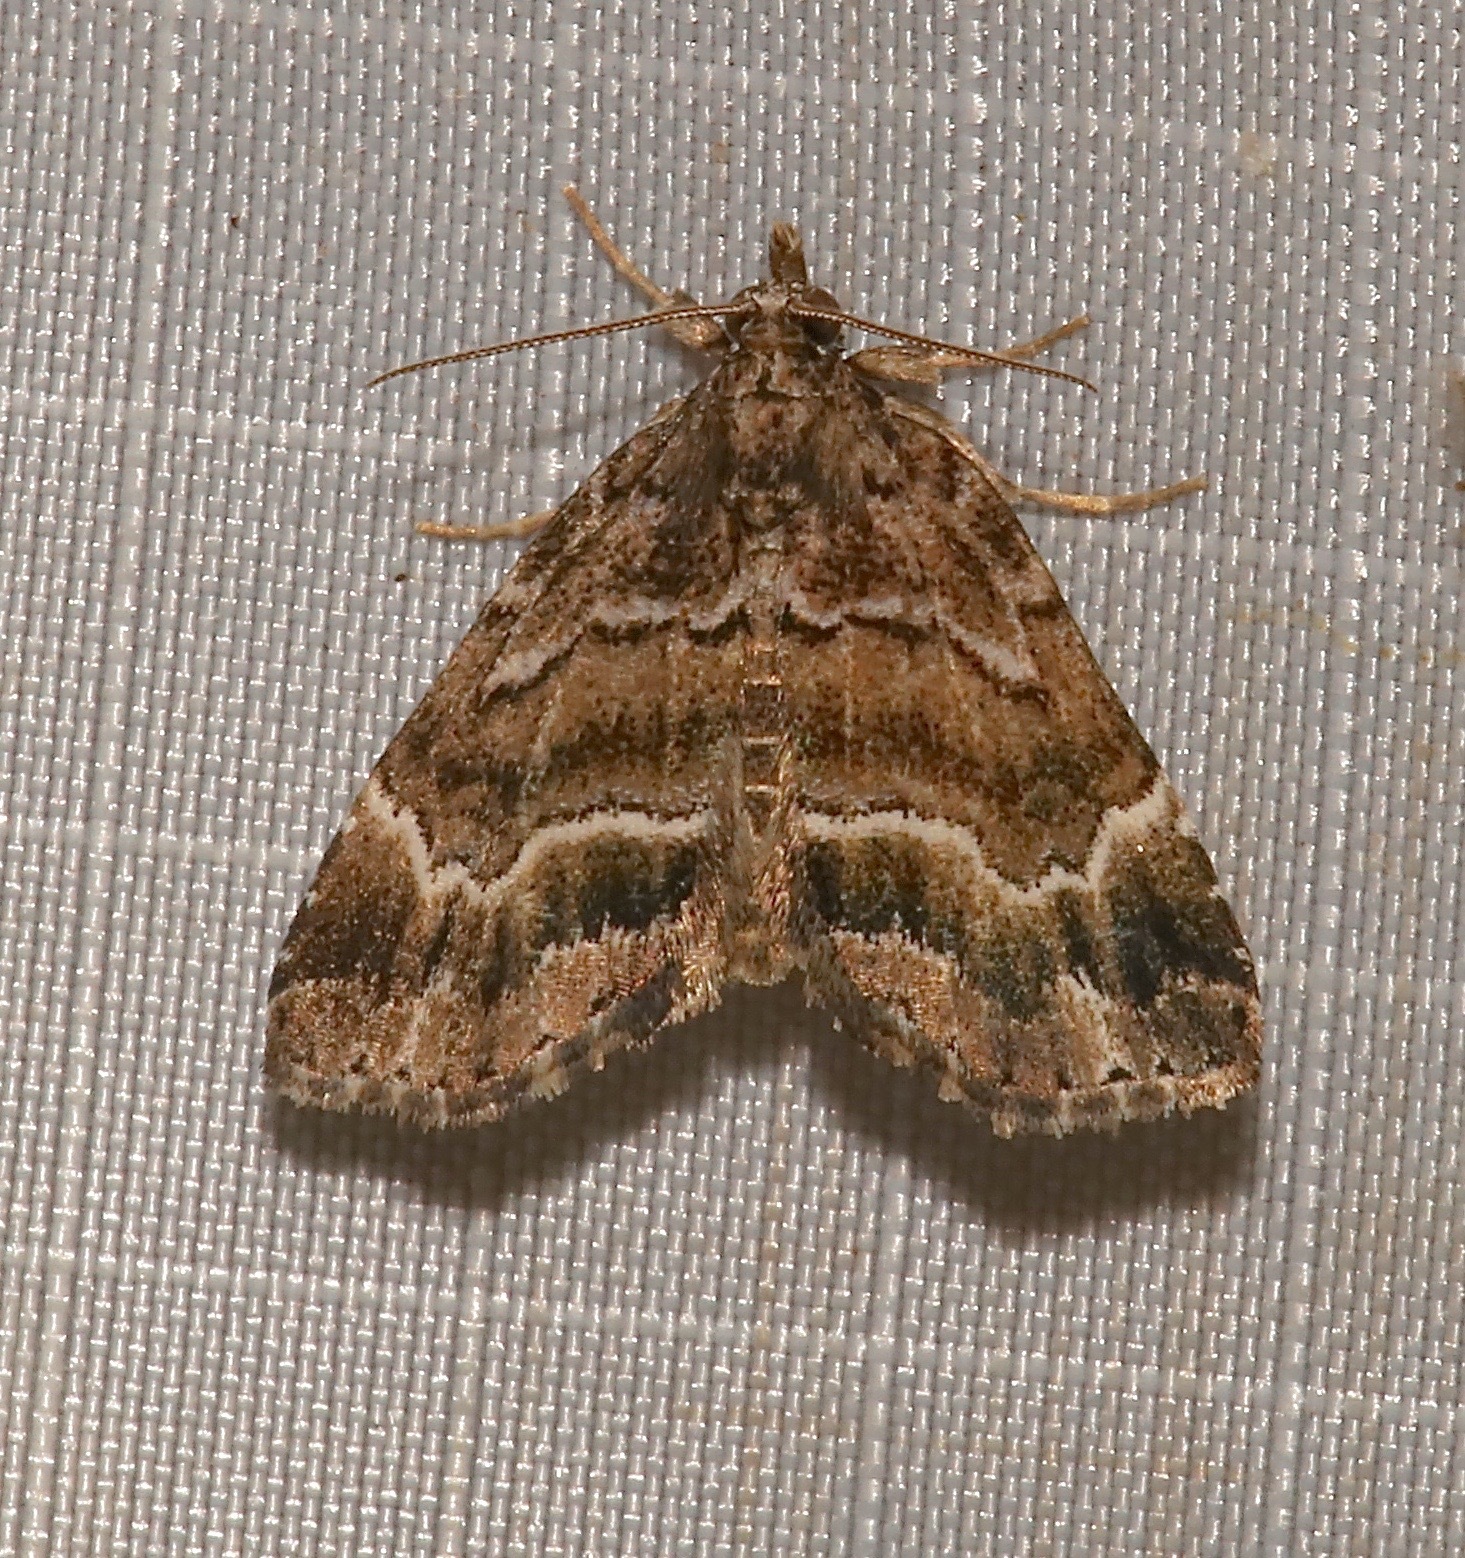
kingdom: Animalia
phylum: Arthropoda
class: Insecta
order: Lepidoptera
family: Erebidae
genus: Cutina
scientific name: Cutina arcuata
